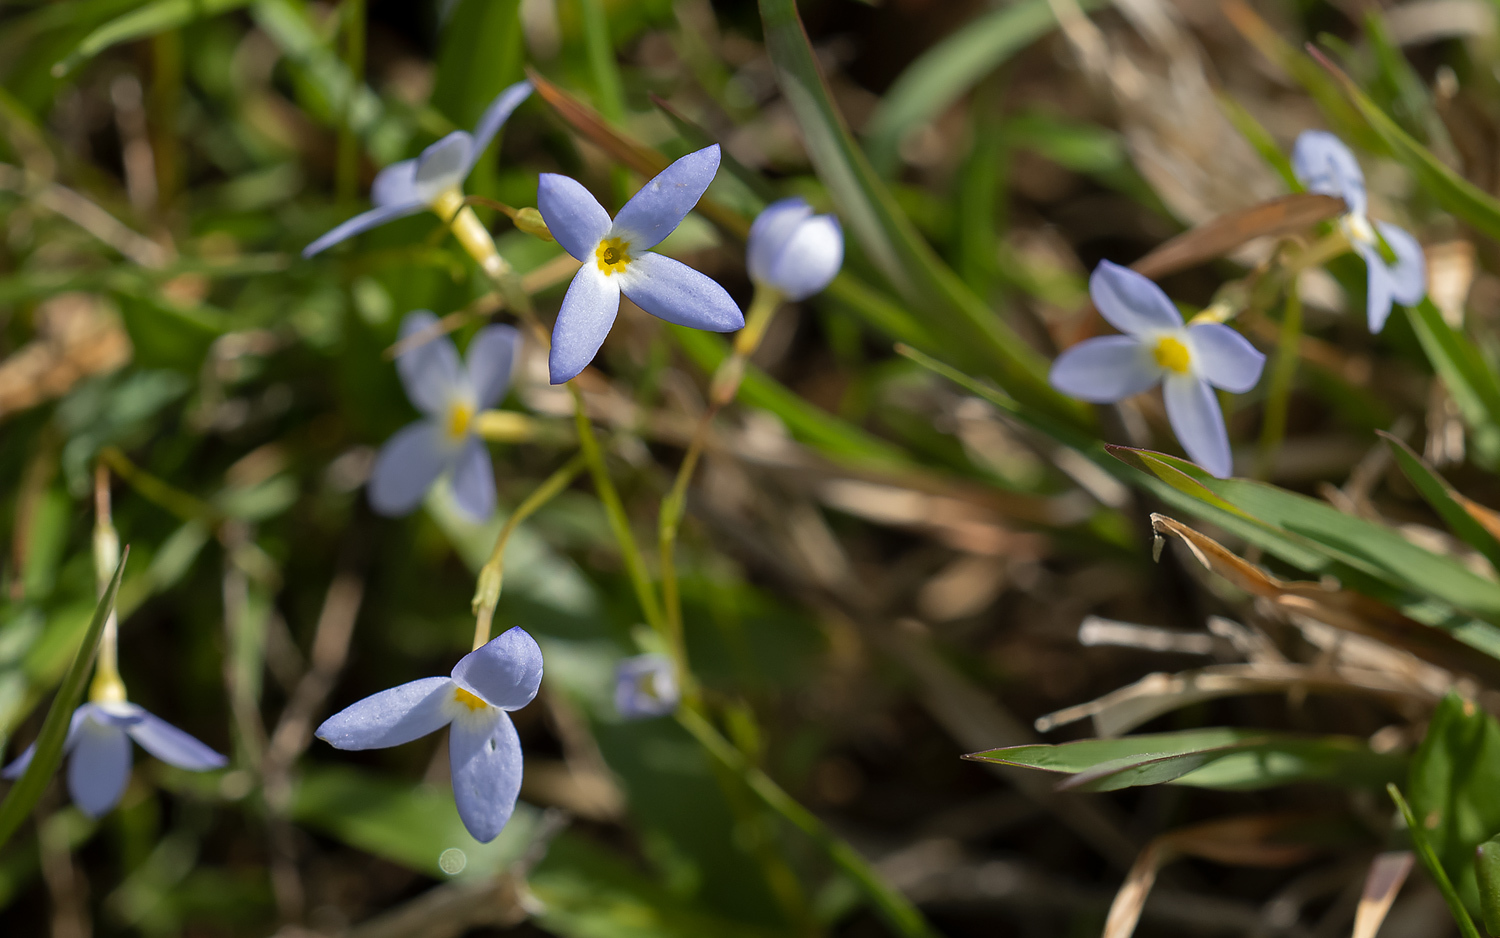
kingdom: Plantae
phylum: Tracheophyta
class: Magnoliopsida
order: Gentianales
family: Rubiaceae
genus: Houstonia
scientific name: Houstonia caerulea
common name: Bluets
